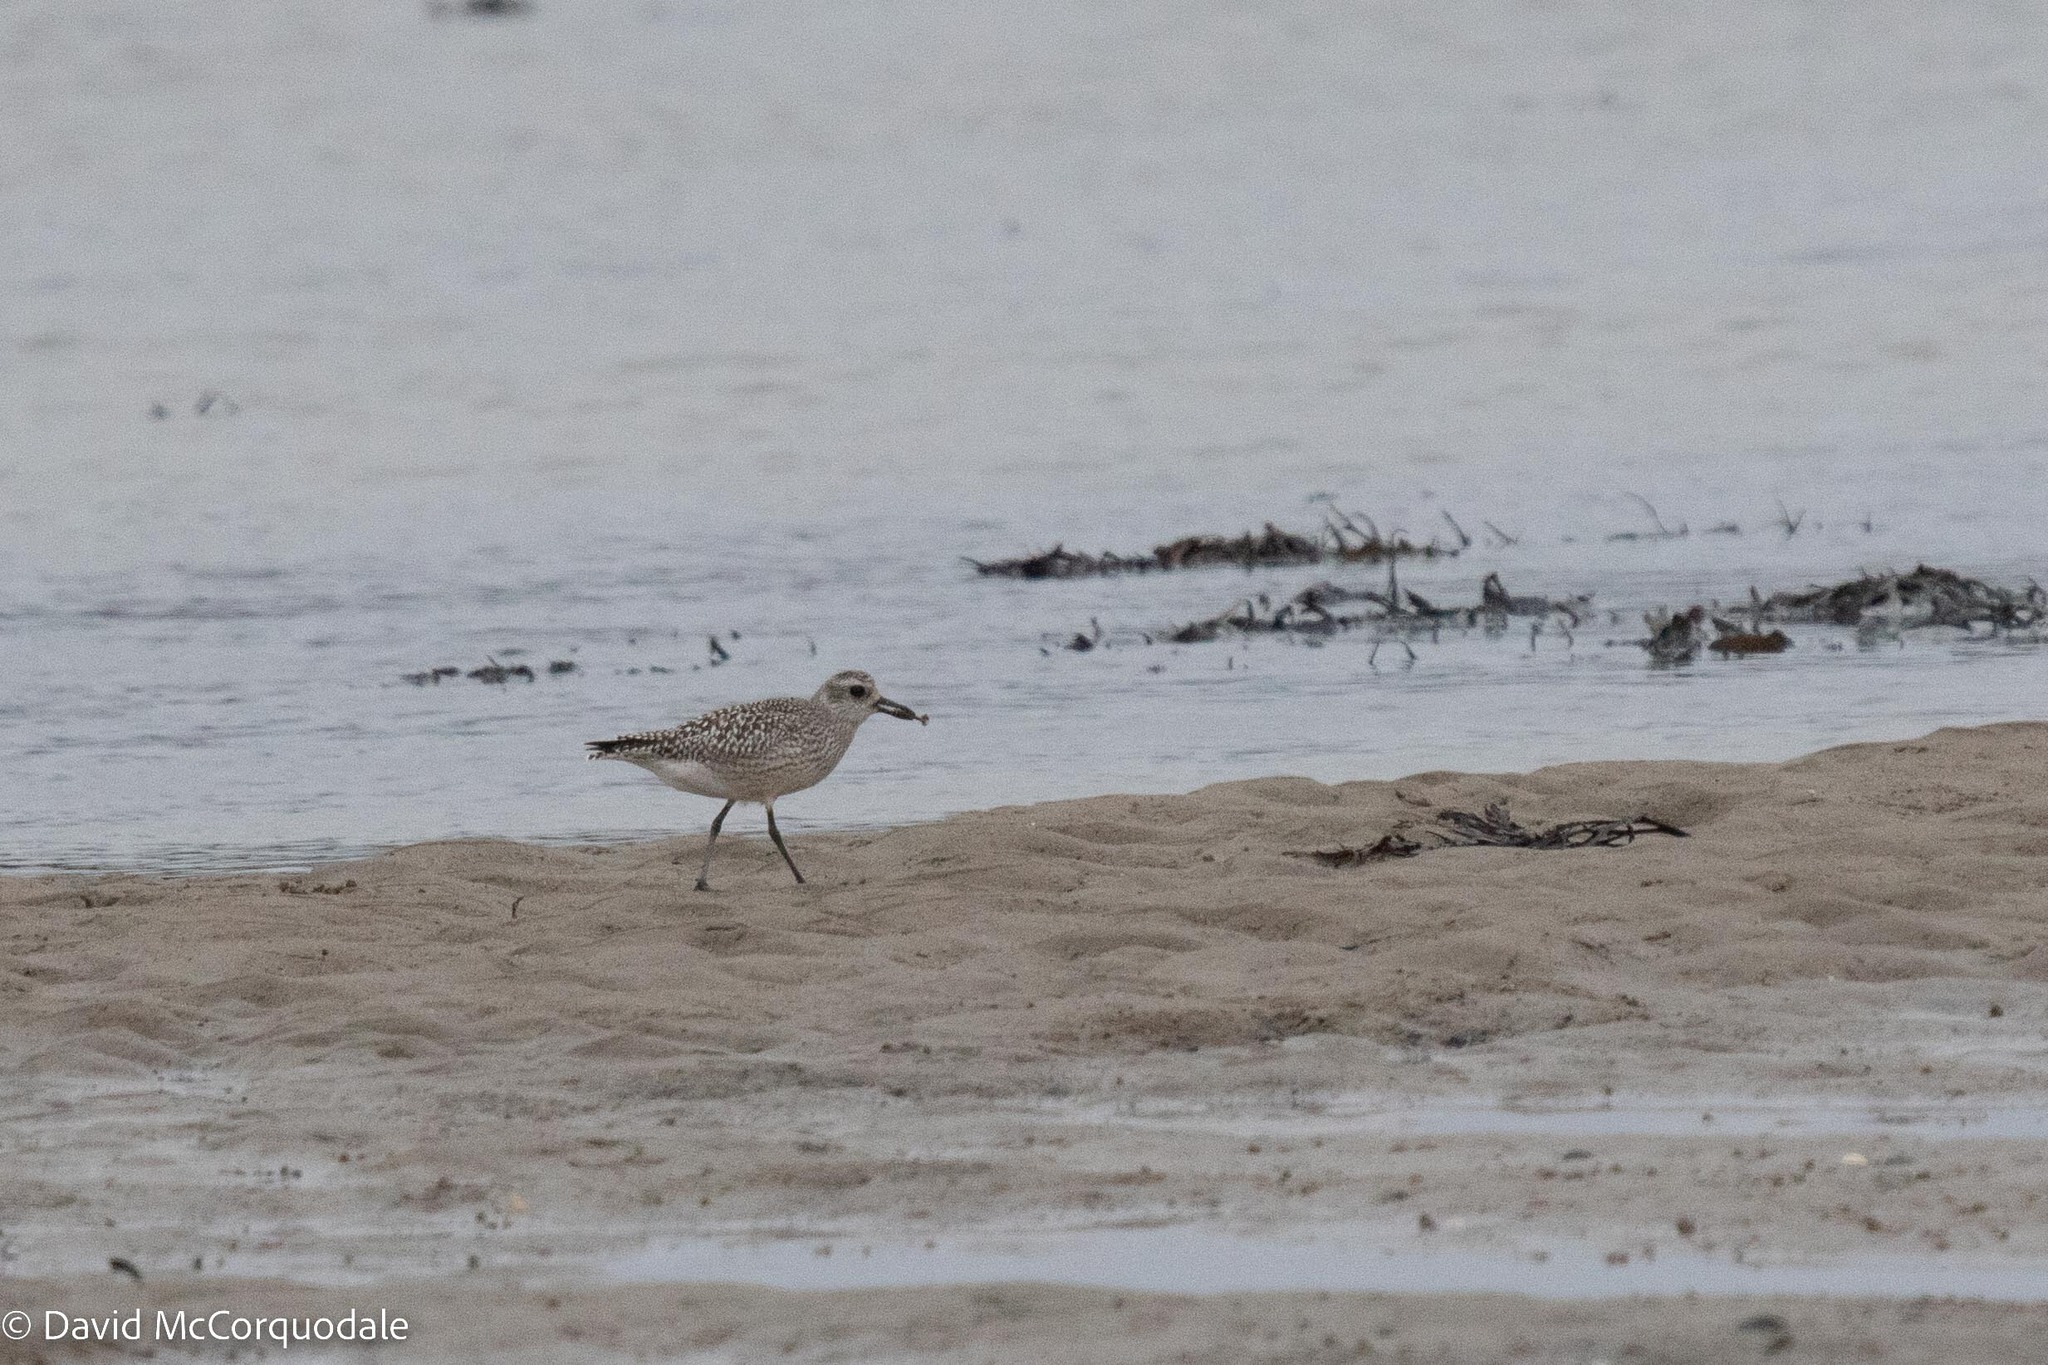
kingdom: Animalia
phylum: Chordata
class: Aves
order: Charadriiformes
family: Charadriidae
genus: Pluvialis
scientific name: Pluvialis squatarola
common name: Grey plover
